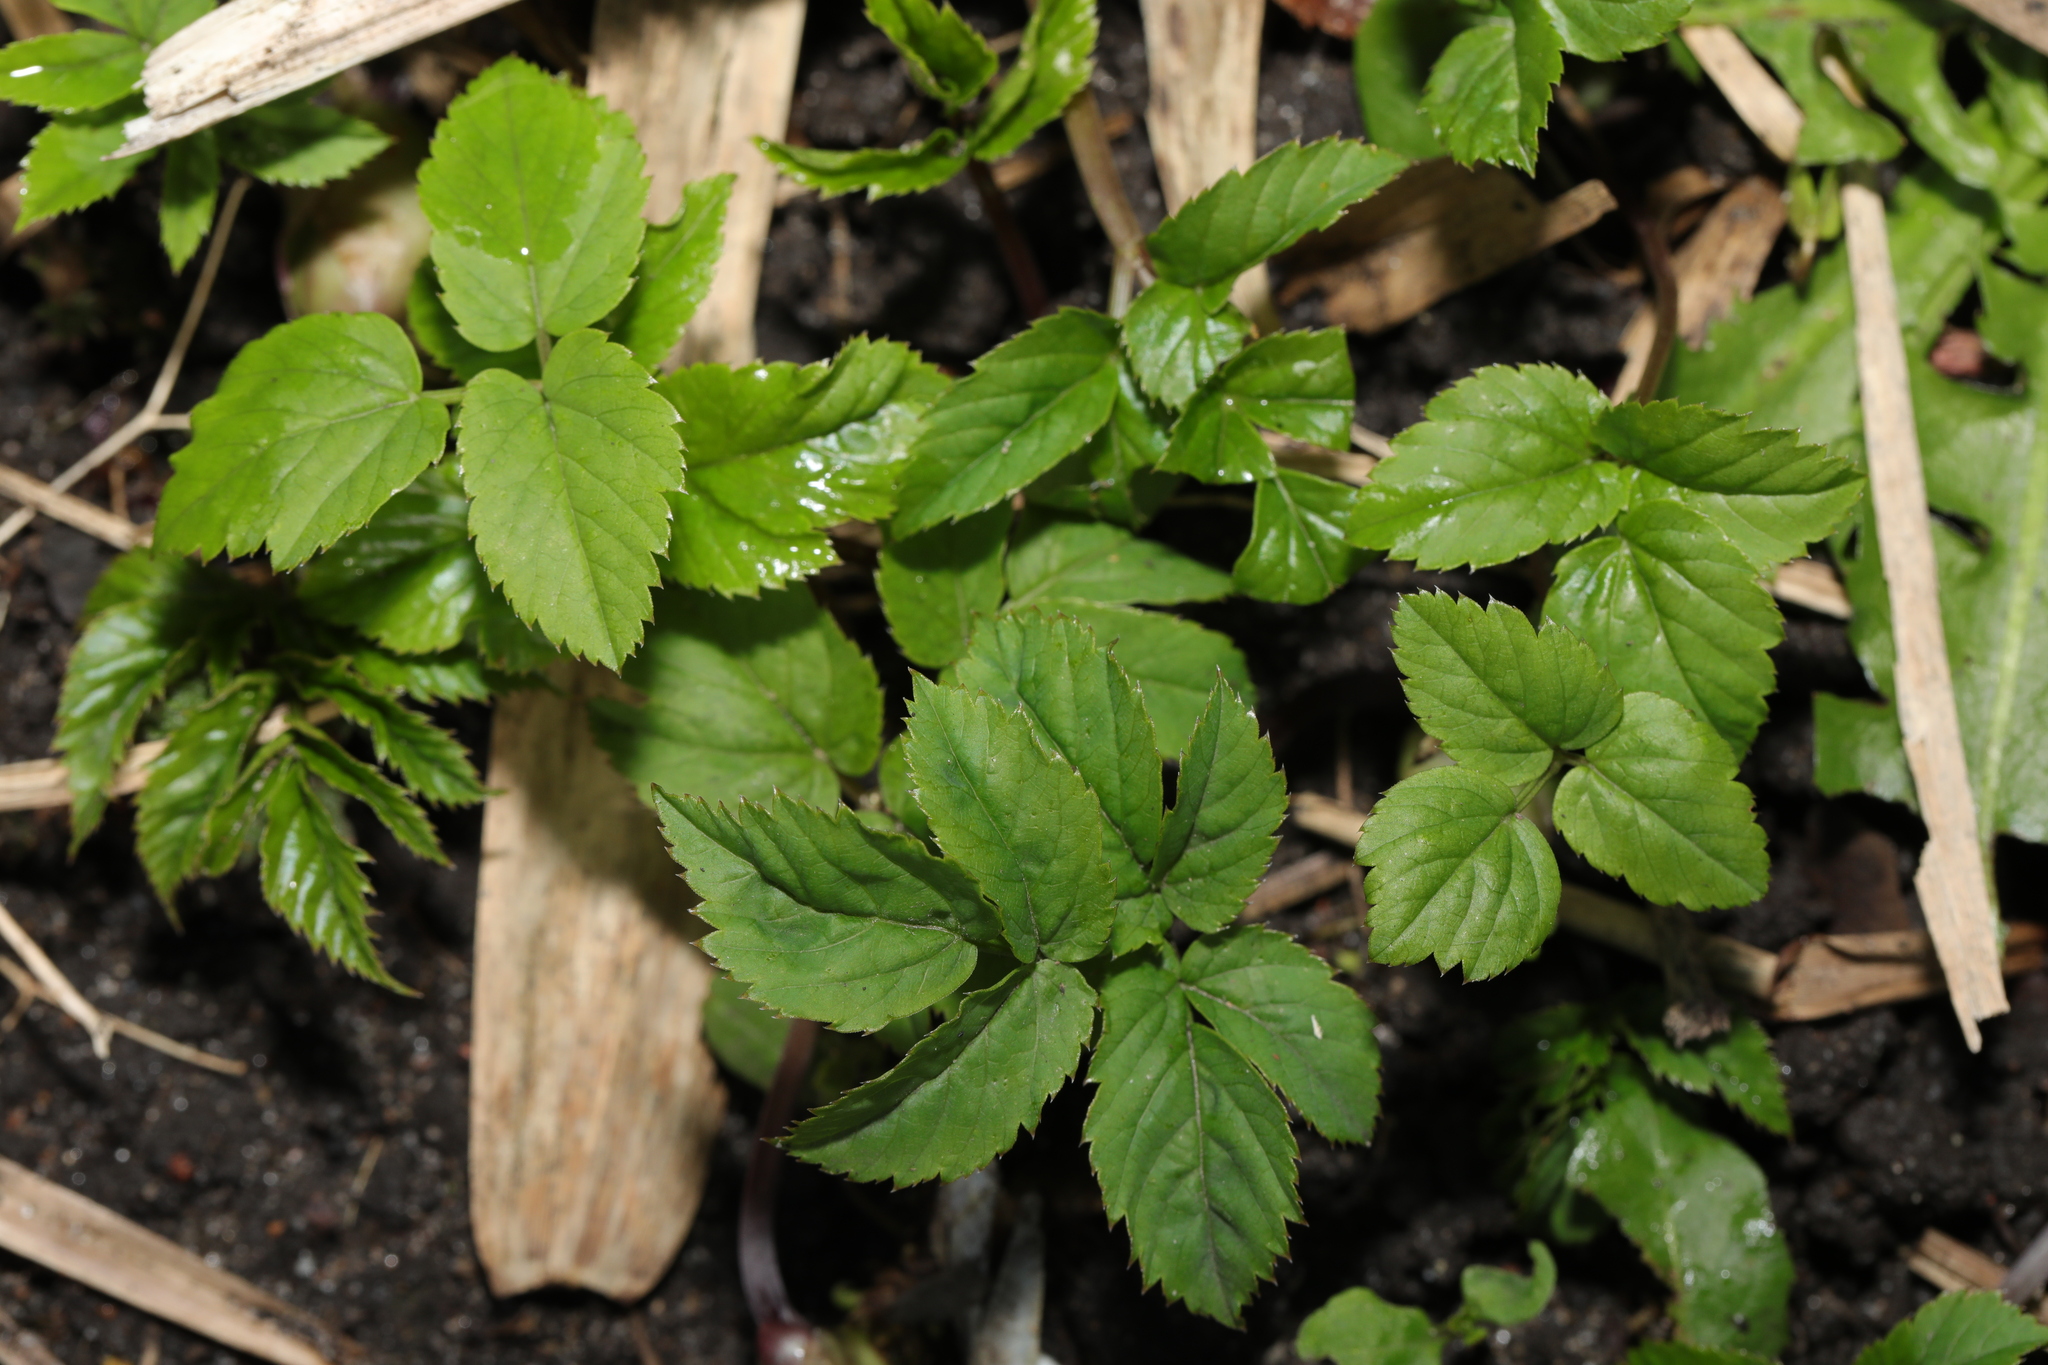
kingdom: Plantae
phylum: Tracheophyta
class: Magnoliopsida
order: Apiales
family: Apiaceae
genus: Aegopodium
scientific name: Aegopodium podagraria
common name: Ground-elder
